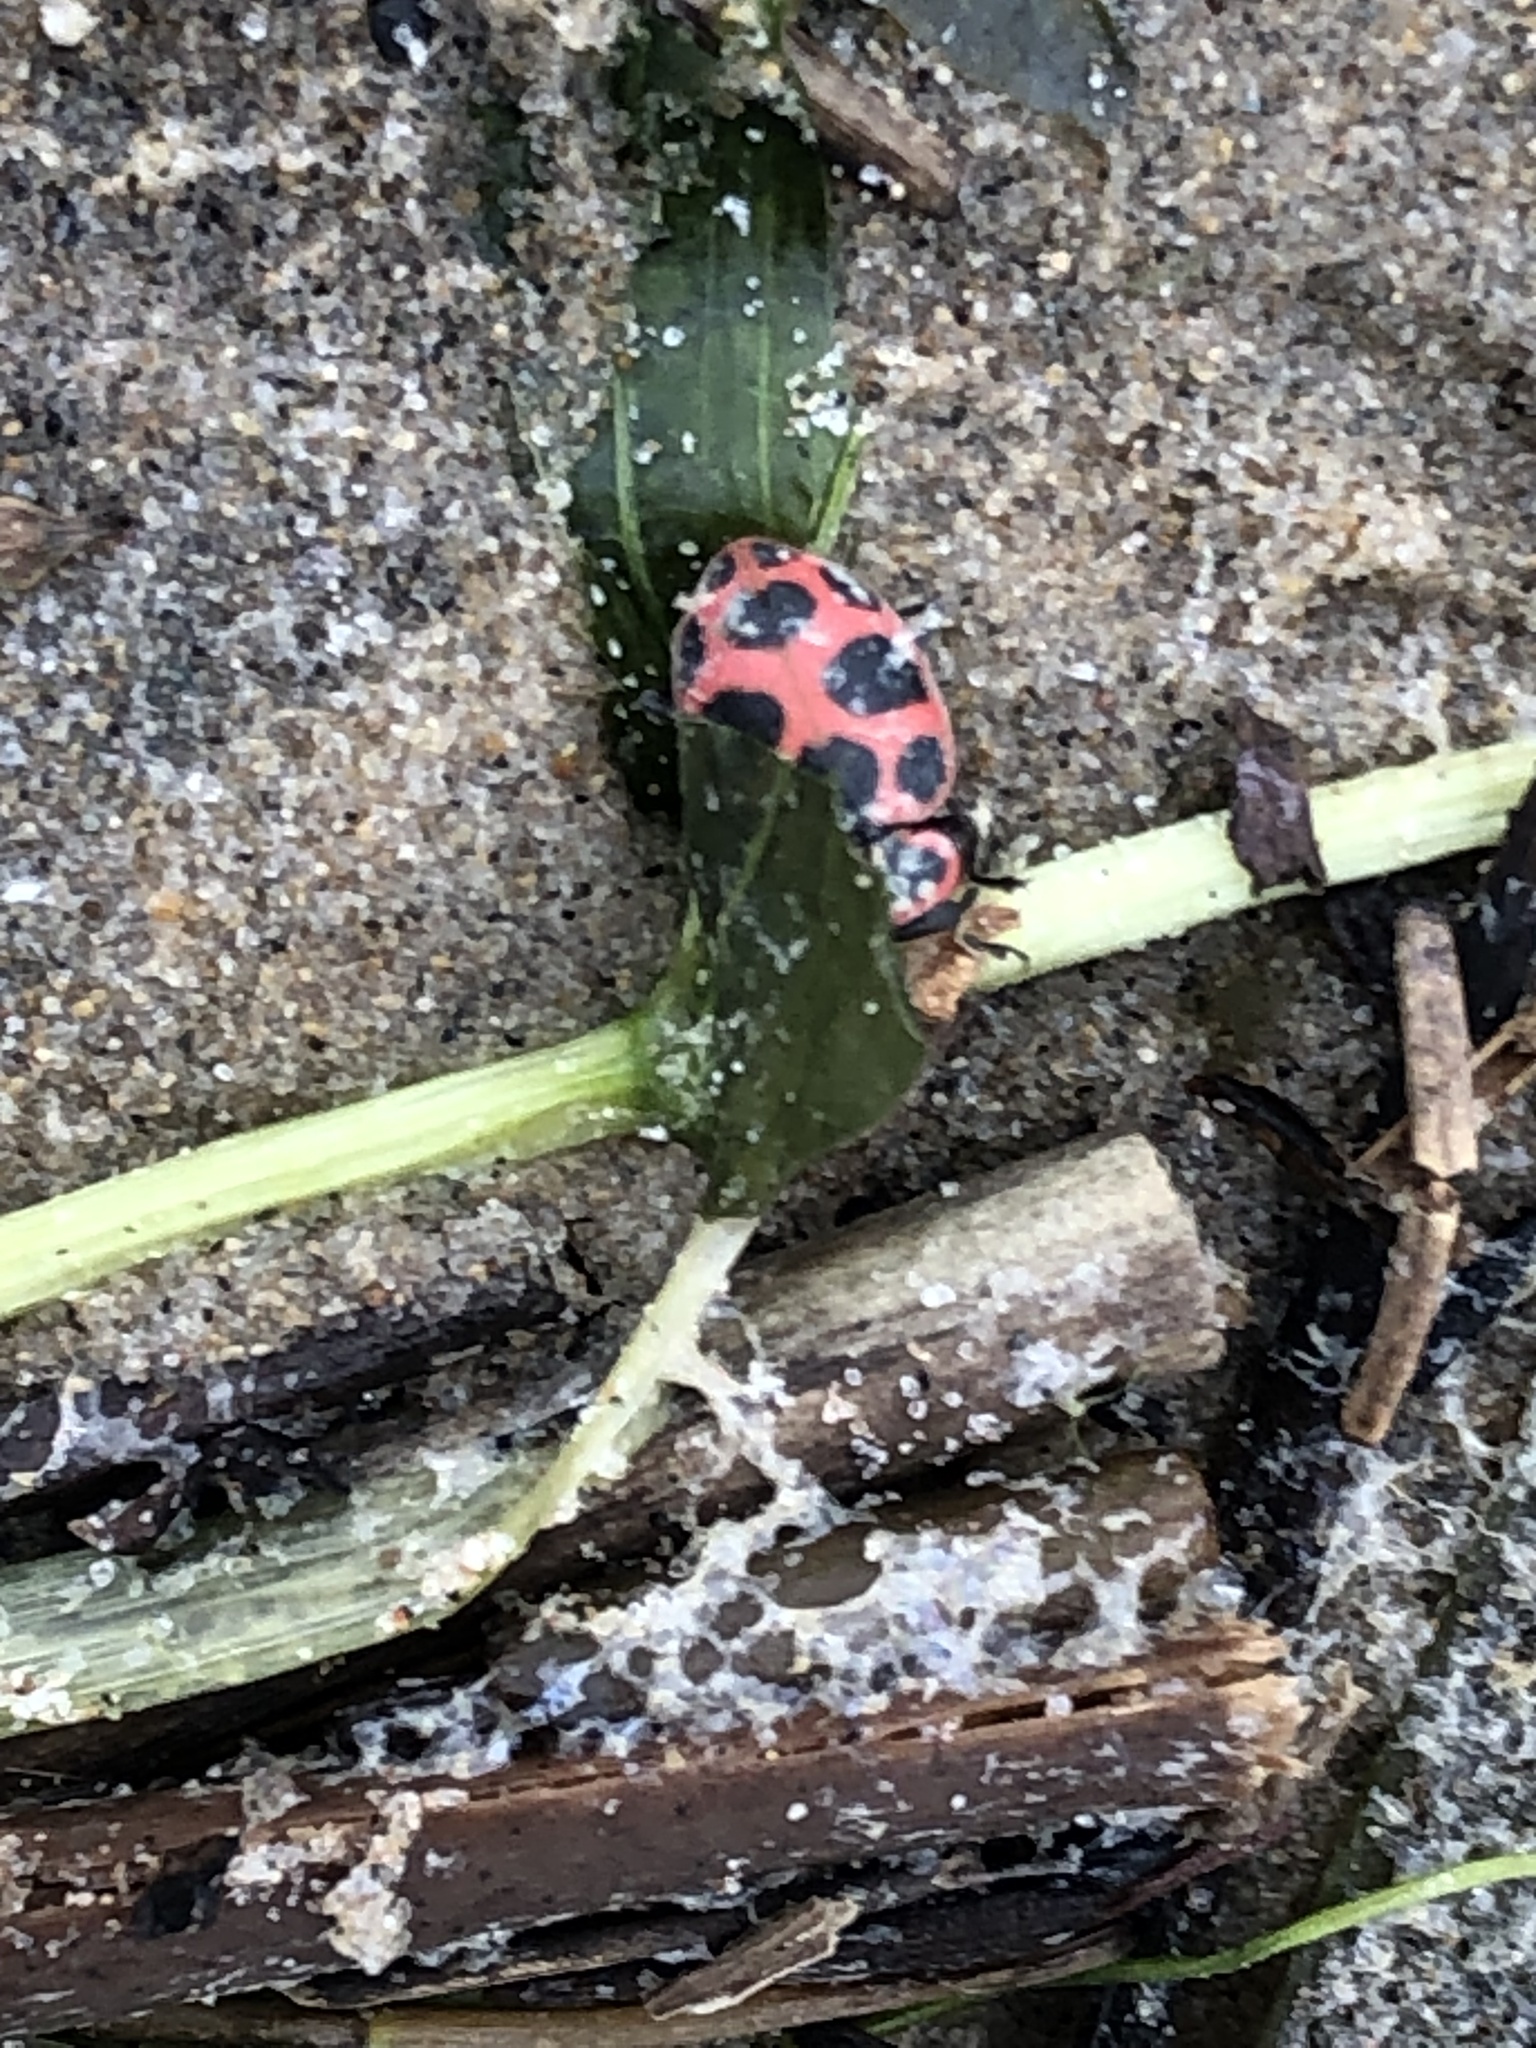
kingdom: Animalia
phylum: Arthropoda
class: Insecta
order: Coleoptera
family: Coccinellidae
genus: Coleomegilla
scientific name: Coleomegilla maculata
